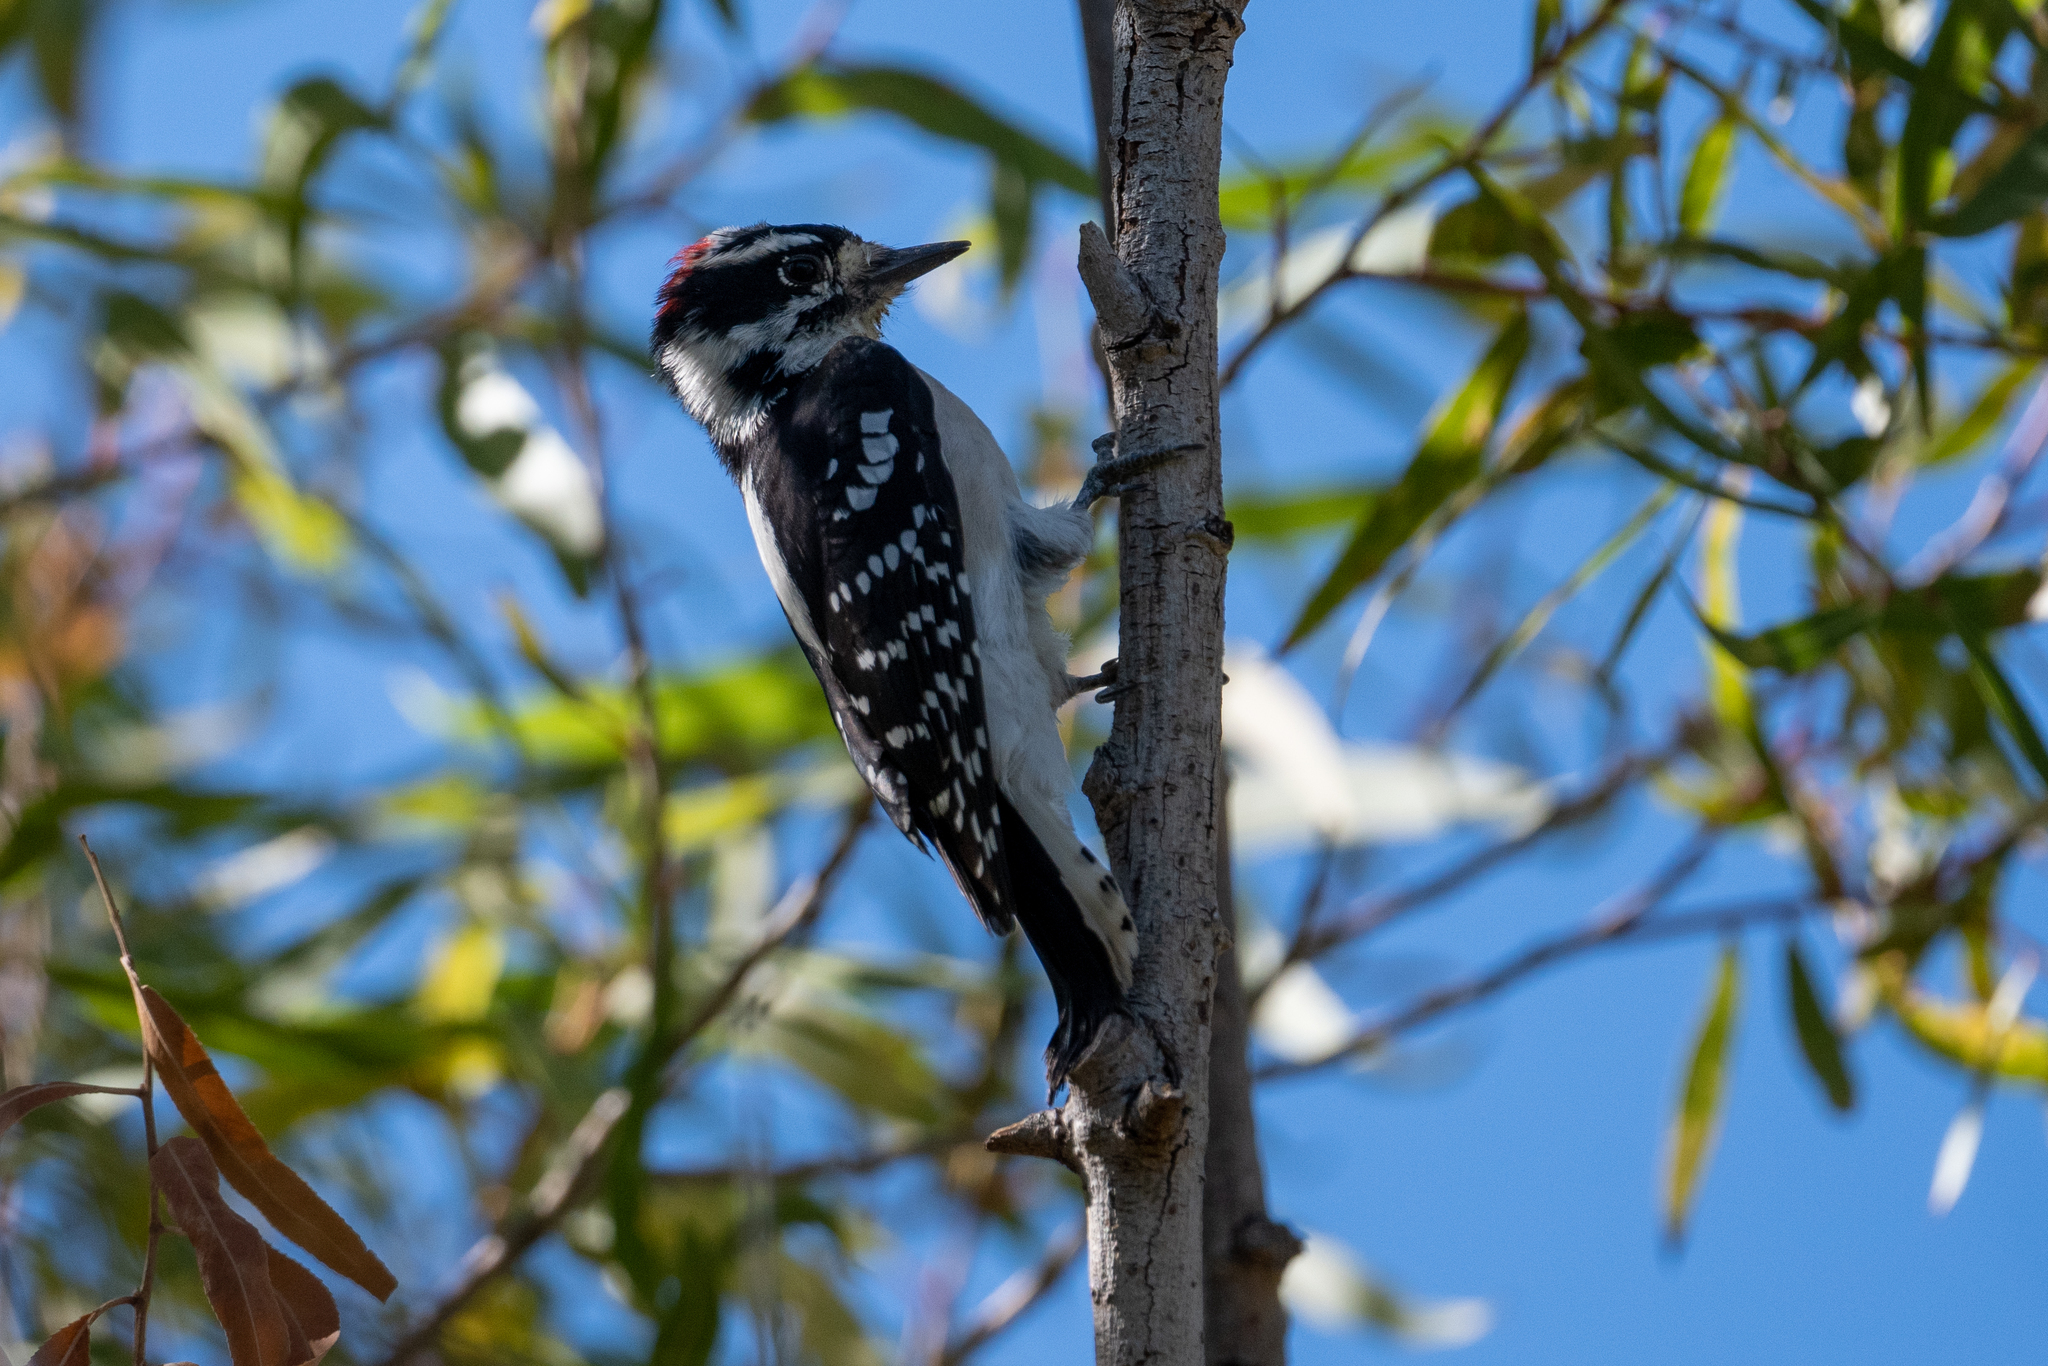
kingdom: Animalia
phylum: Chordata
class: Aves
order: Piciformes
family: Picidae
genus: Dryobates
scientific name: Dryobates pubescens
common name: Downy woodpecker
